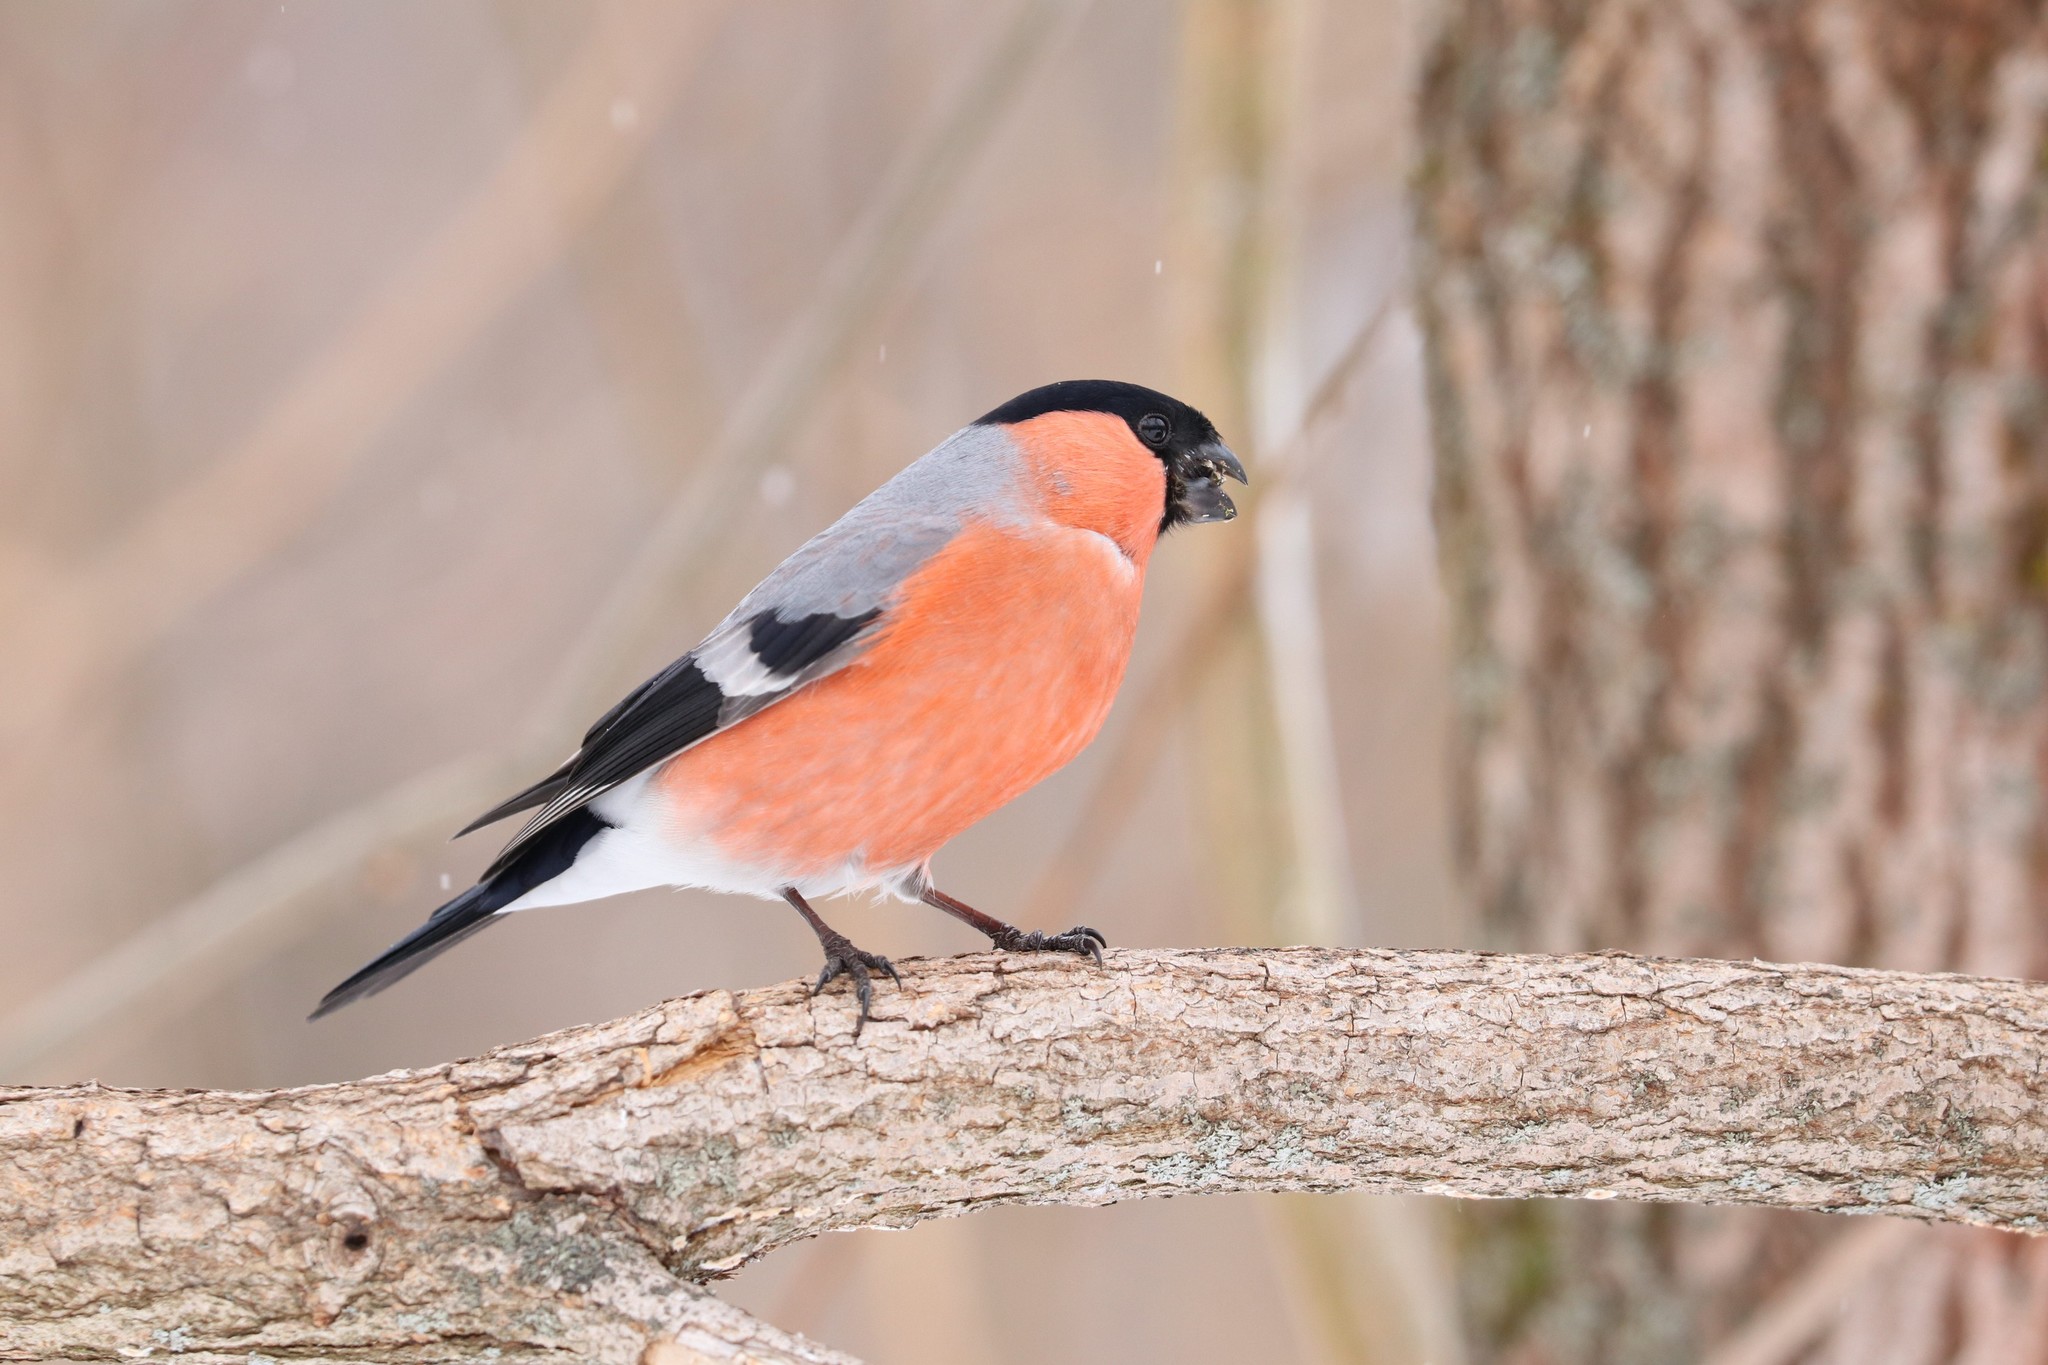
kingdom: Animalia
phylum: Chordata
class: Aves
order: Passeriformes
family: Fringillidae
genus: Pyrrhula
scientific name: Pyrrhula pyrrhula
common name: Eurasian bullfinch
